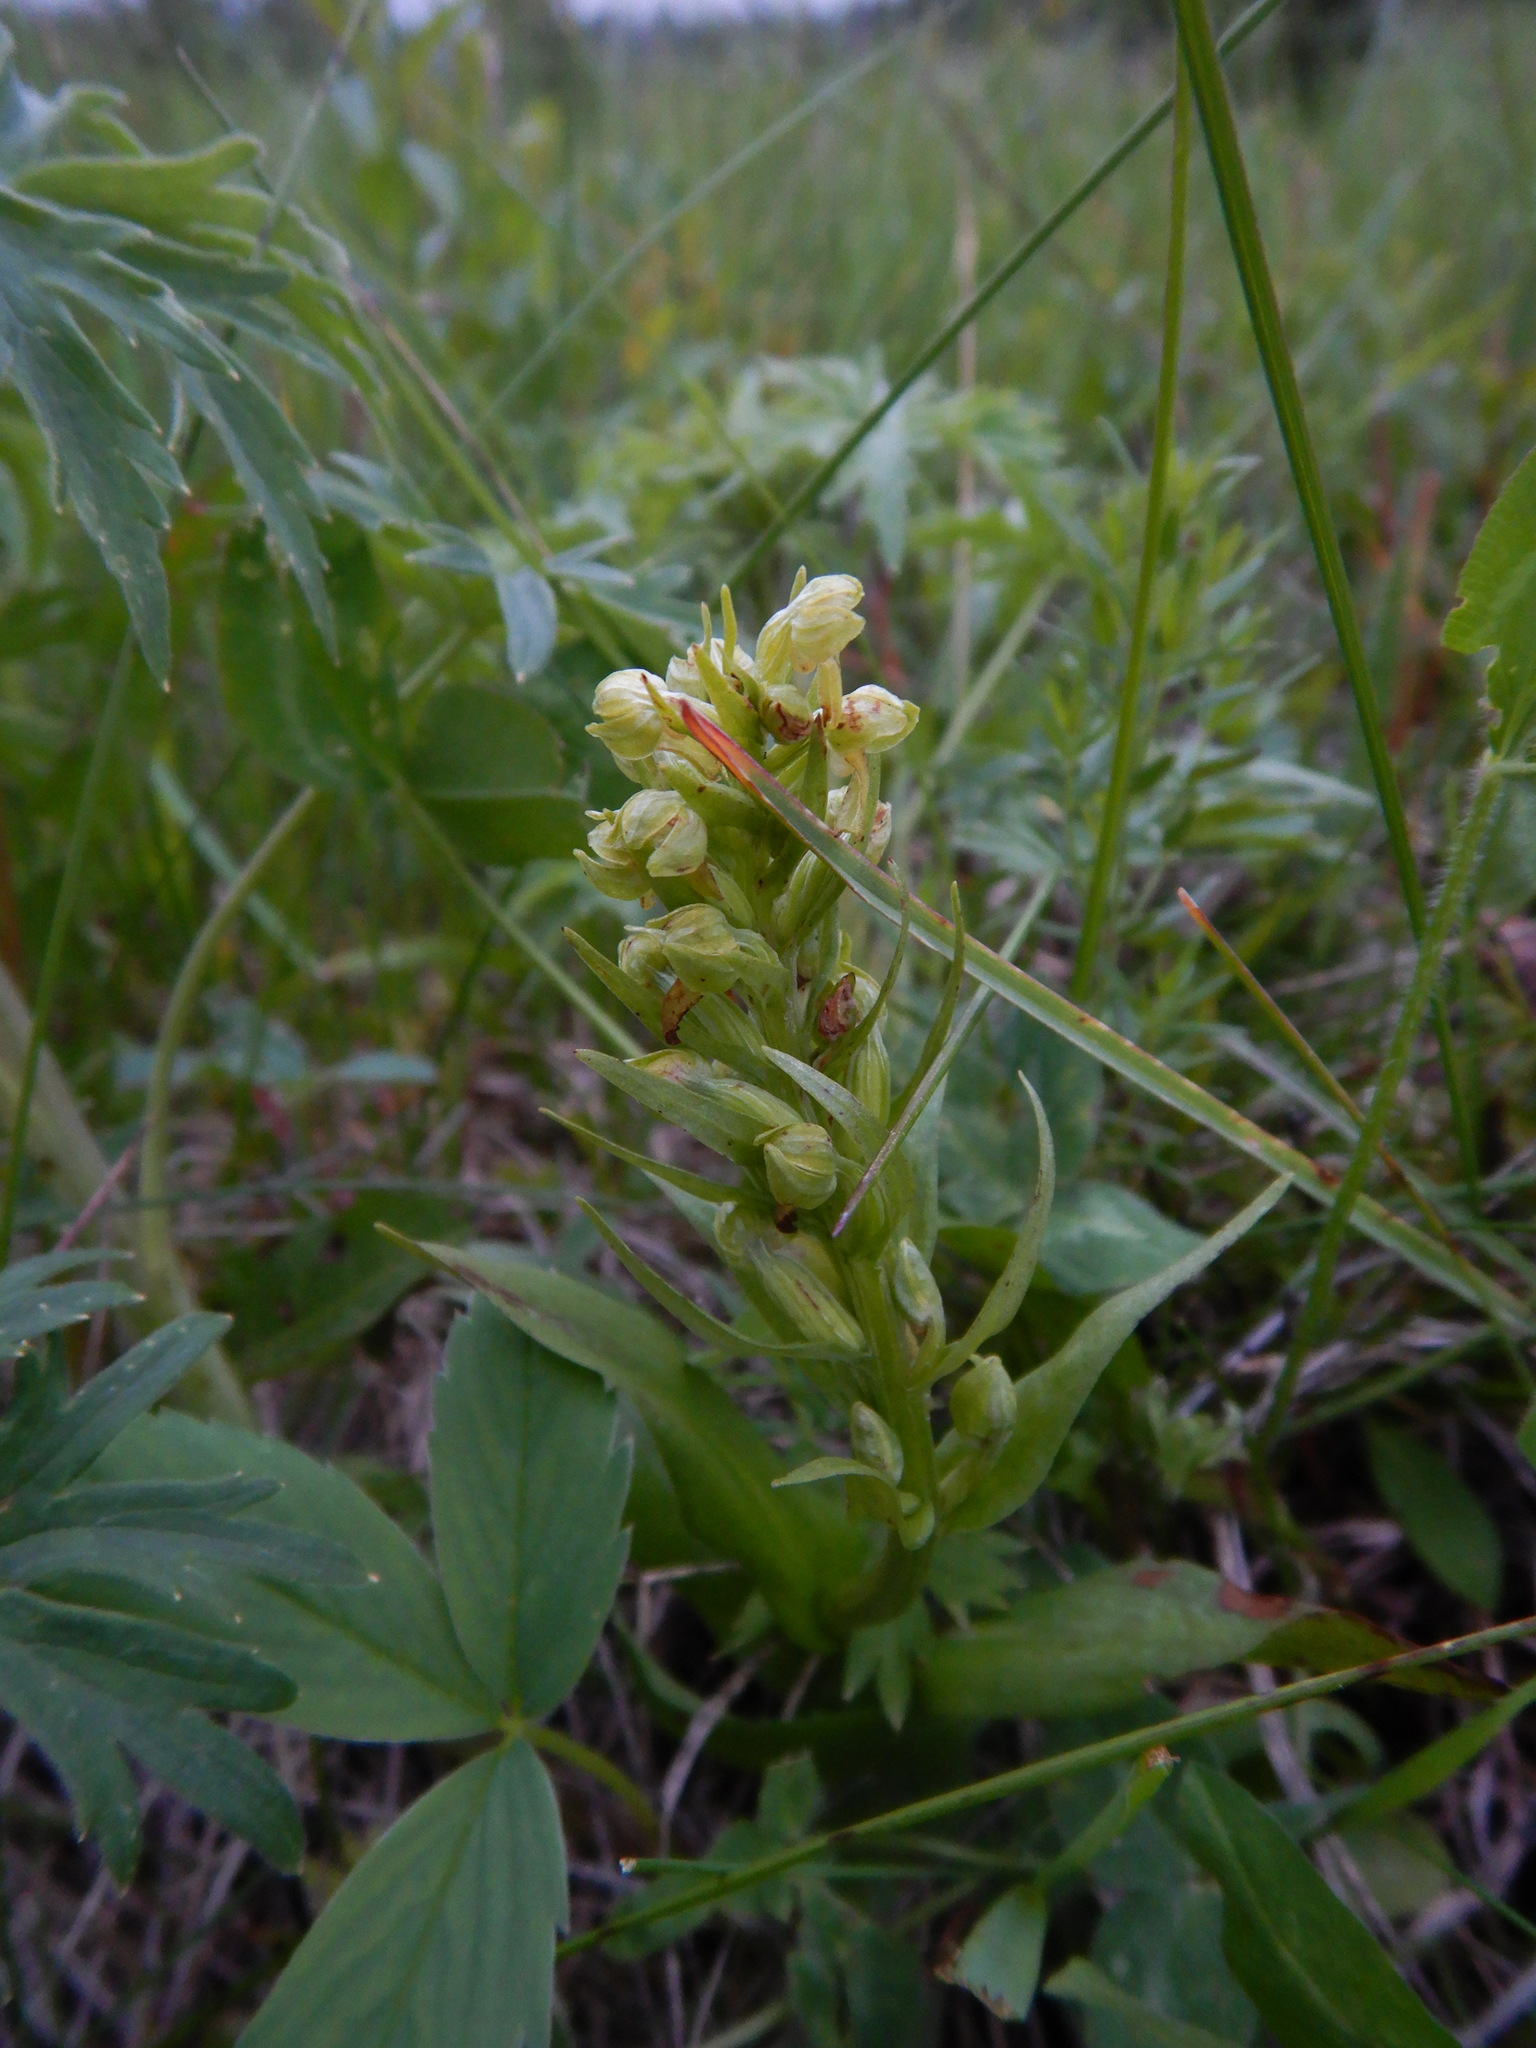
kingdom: Plantae
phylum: Tracheophyta
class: Liliopsida
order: Asparagales
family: Orchidaceae
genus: Dactylorhiza
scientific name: Dactylorhiza viridis
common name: Longbract frog orchid
